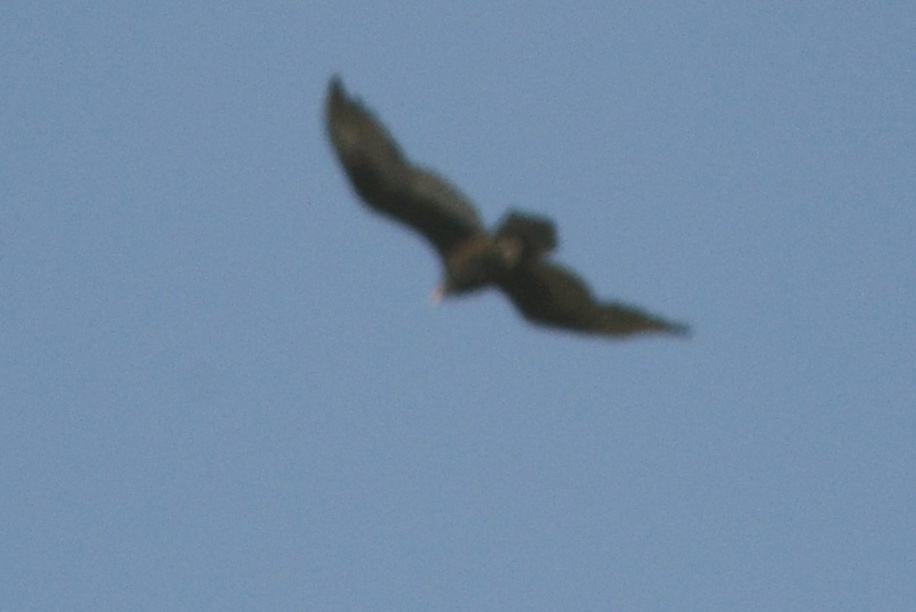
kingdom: Animalia
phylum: Chordata
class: Aves
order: Accipitriformes
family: Cathartidae
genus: Cathartes
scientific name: Cathartes aura
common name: Turkey vulture
